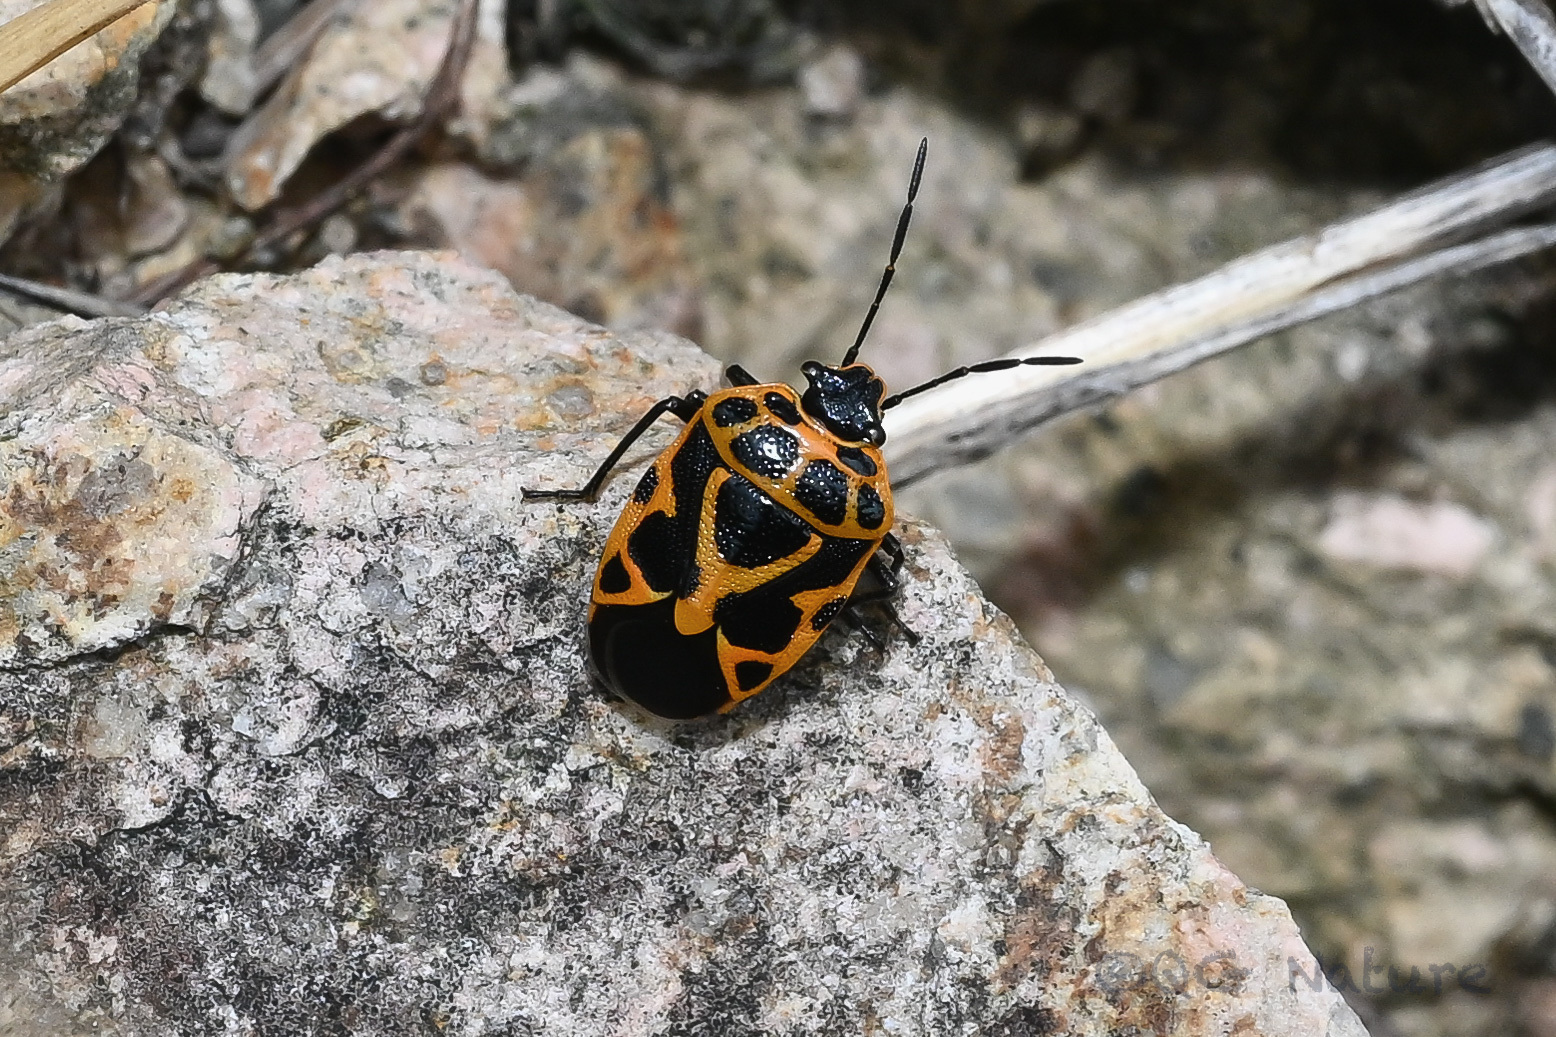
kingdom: Animalia
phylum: Arthropoda
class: Insecta
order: Hemiptera
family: Pentatomidae
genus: Eurydema
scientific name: Eurydema dominulus
